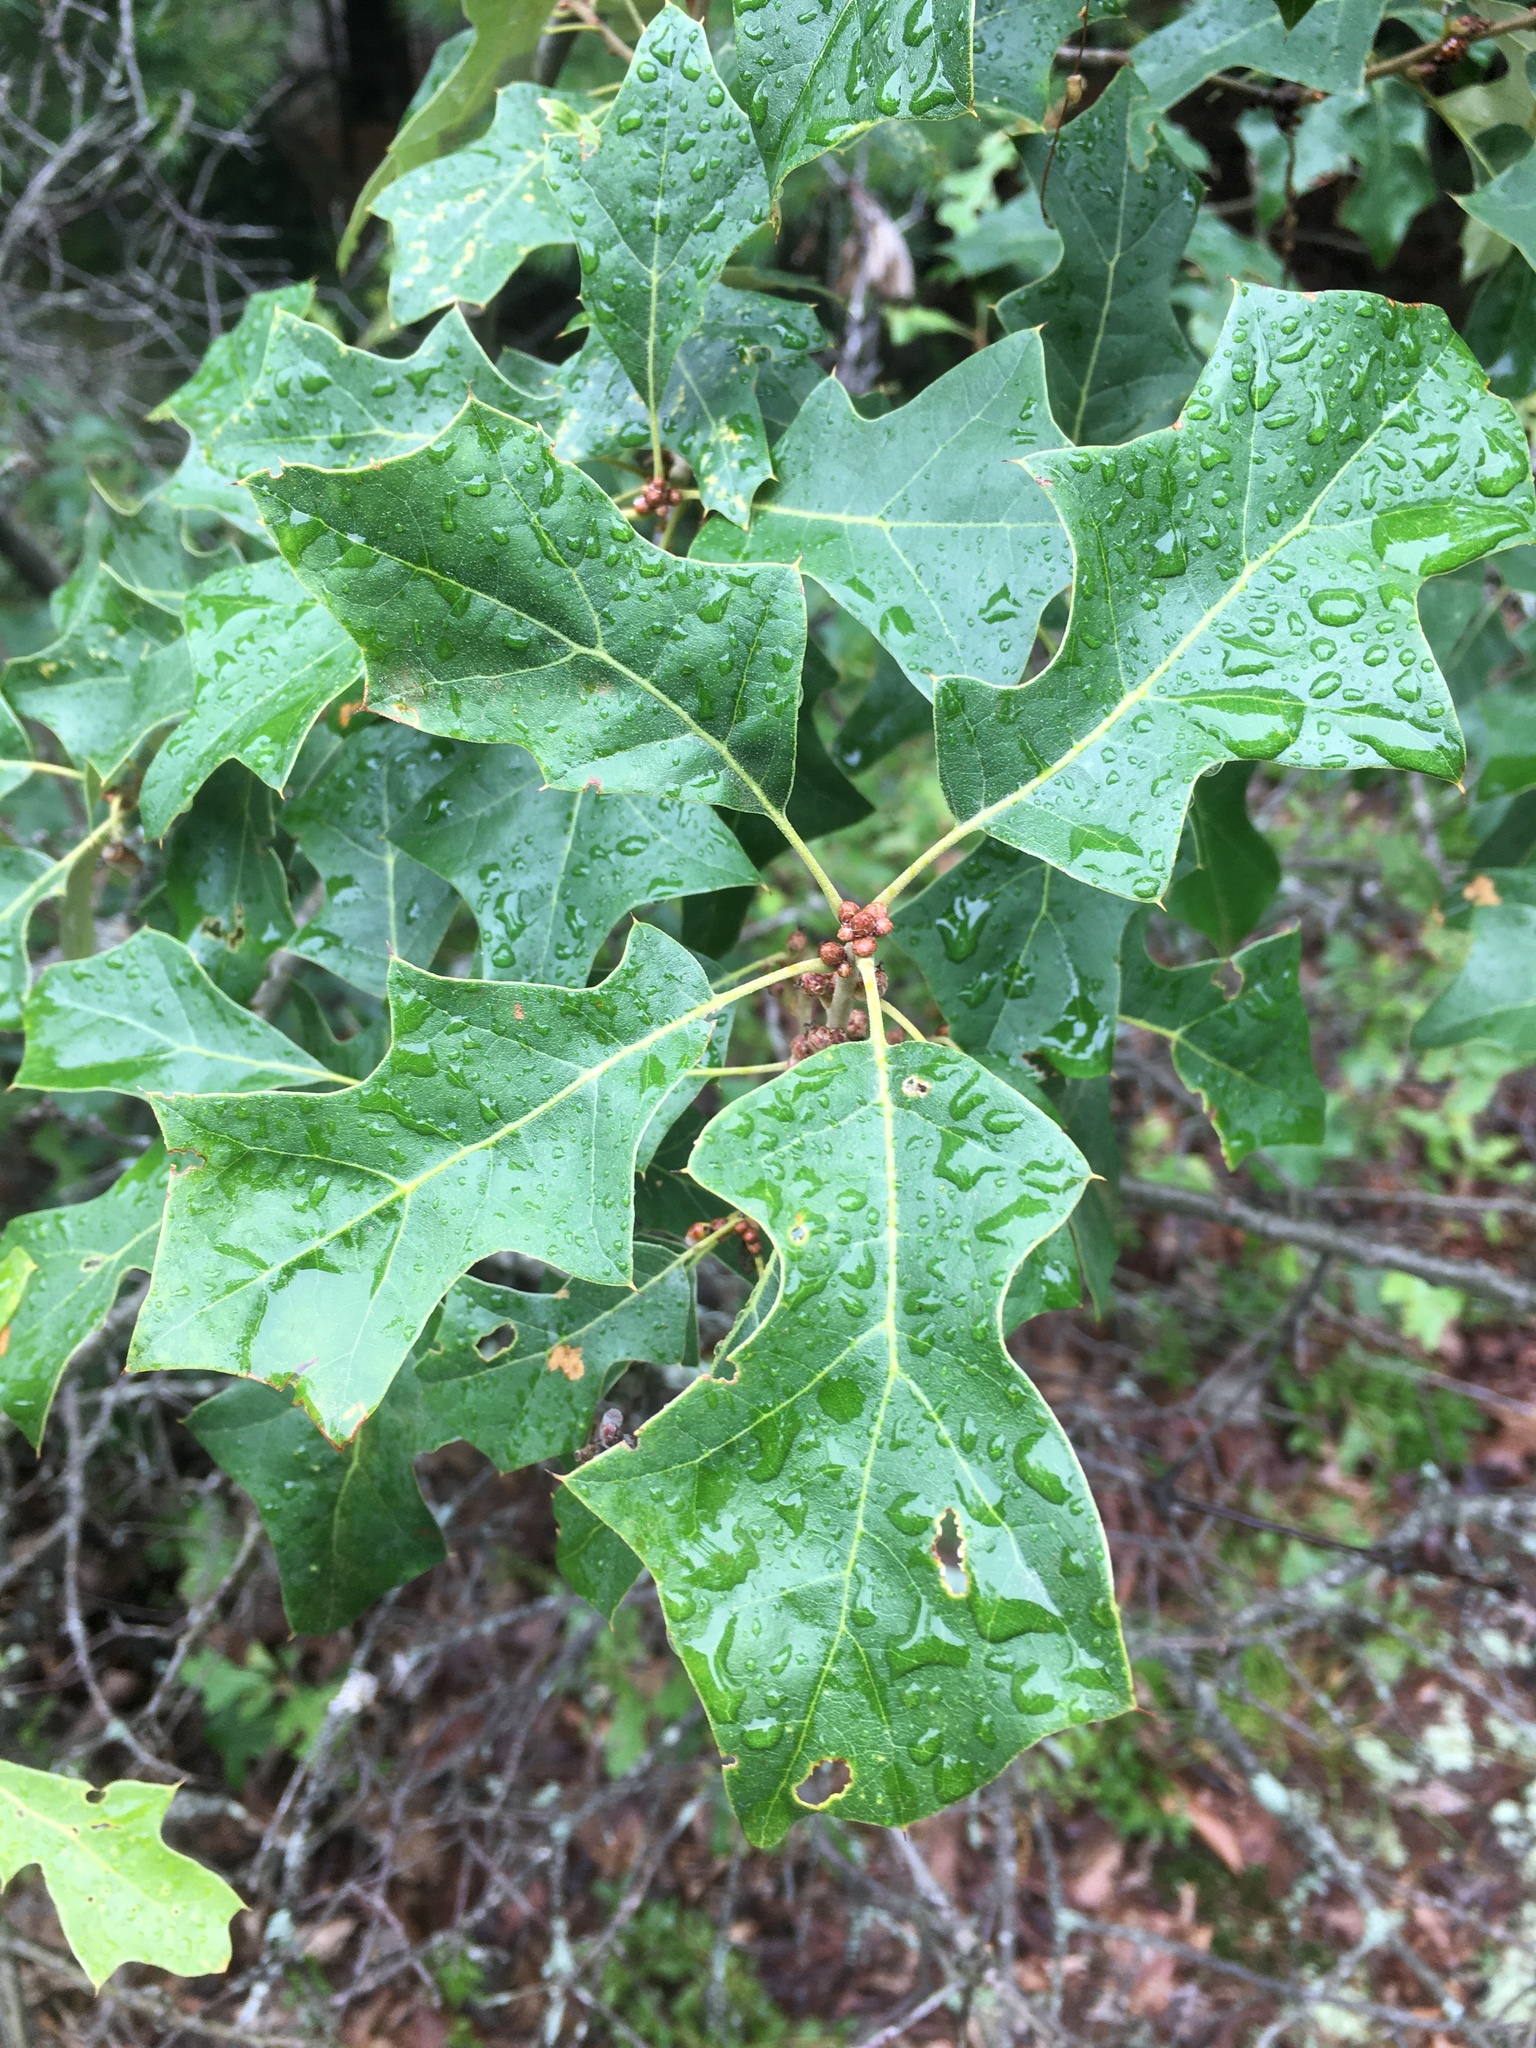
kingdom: Plantae
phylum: Tracheophyta
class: Magnoliopsida
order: Fagales
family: Fagaceae
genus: Quercus
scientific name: Quercus ilicifolia
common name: Bear oak
